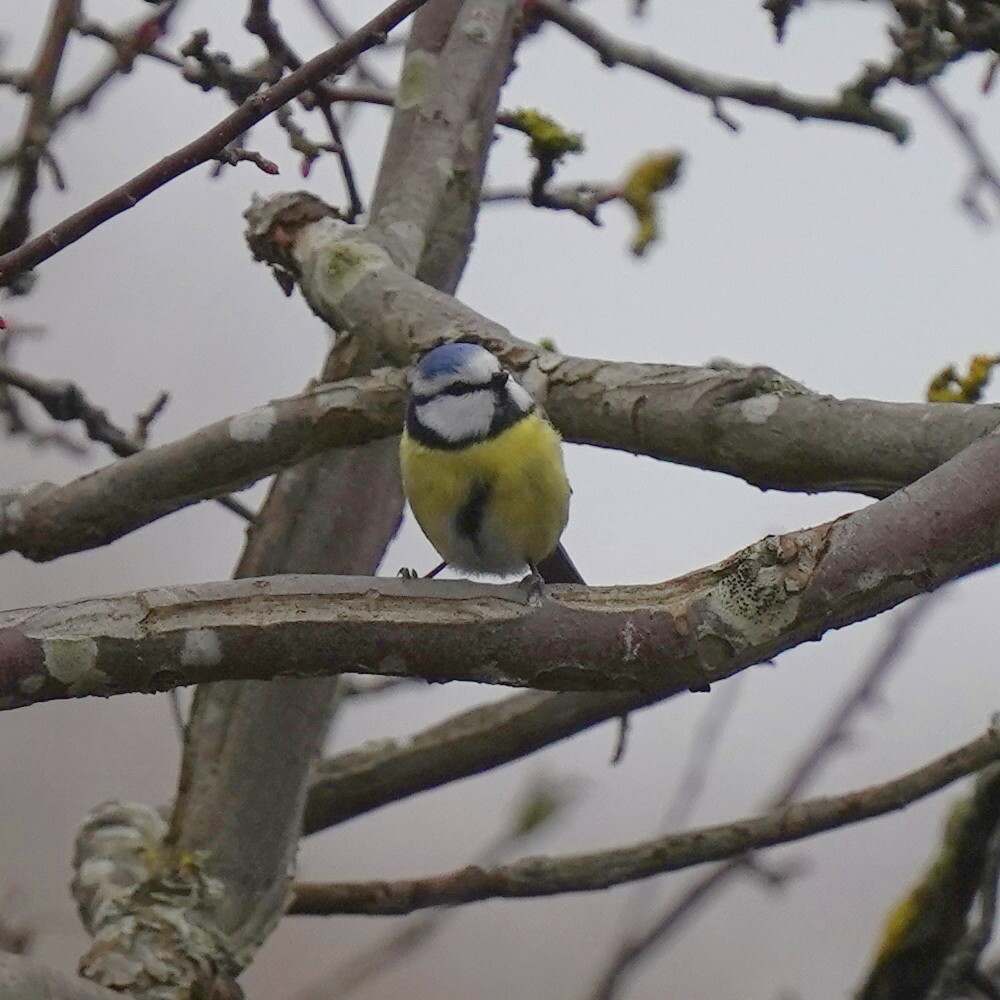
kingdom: Animalia
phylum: Chordata
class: Aves
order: Passeriformes
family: Paridae
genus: Cyanistes
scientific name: Cyanistes caeruleus
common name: Eurasian blue tit
